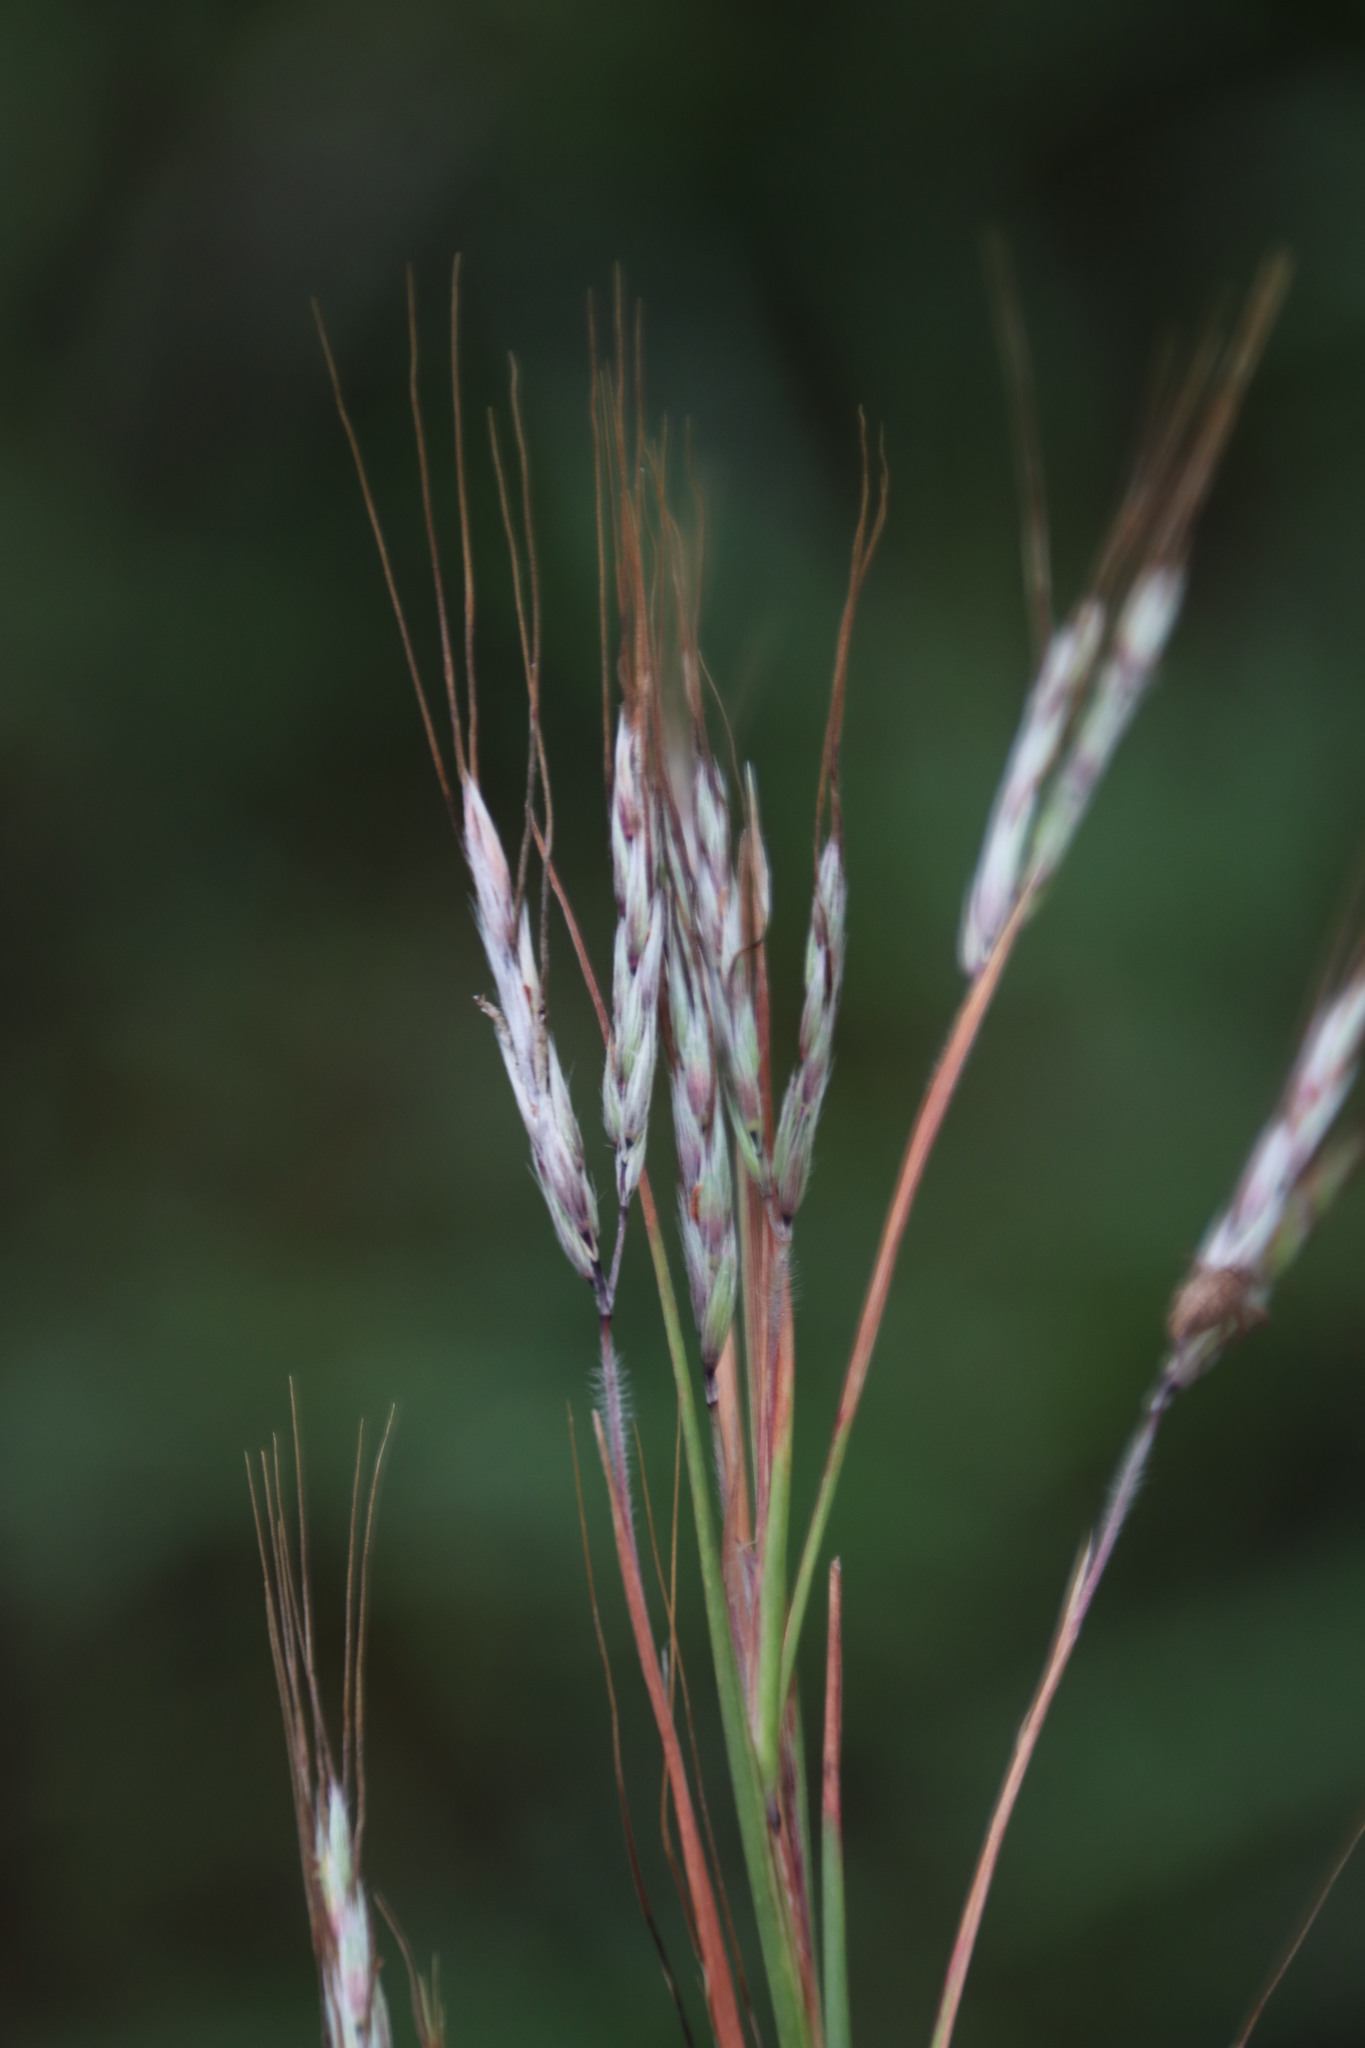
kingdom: Plantae
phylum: Tracheophyta
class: Liliopsida
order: Poales
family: Poaceae
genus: Hyparrhenia
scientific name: Hyparrhenia hirta
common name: Thatching grass
